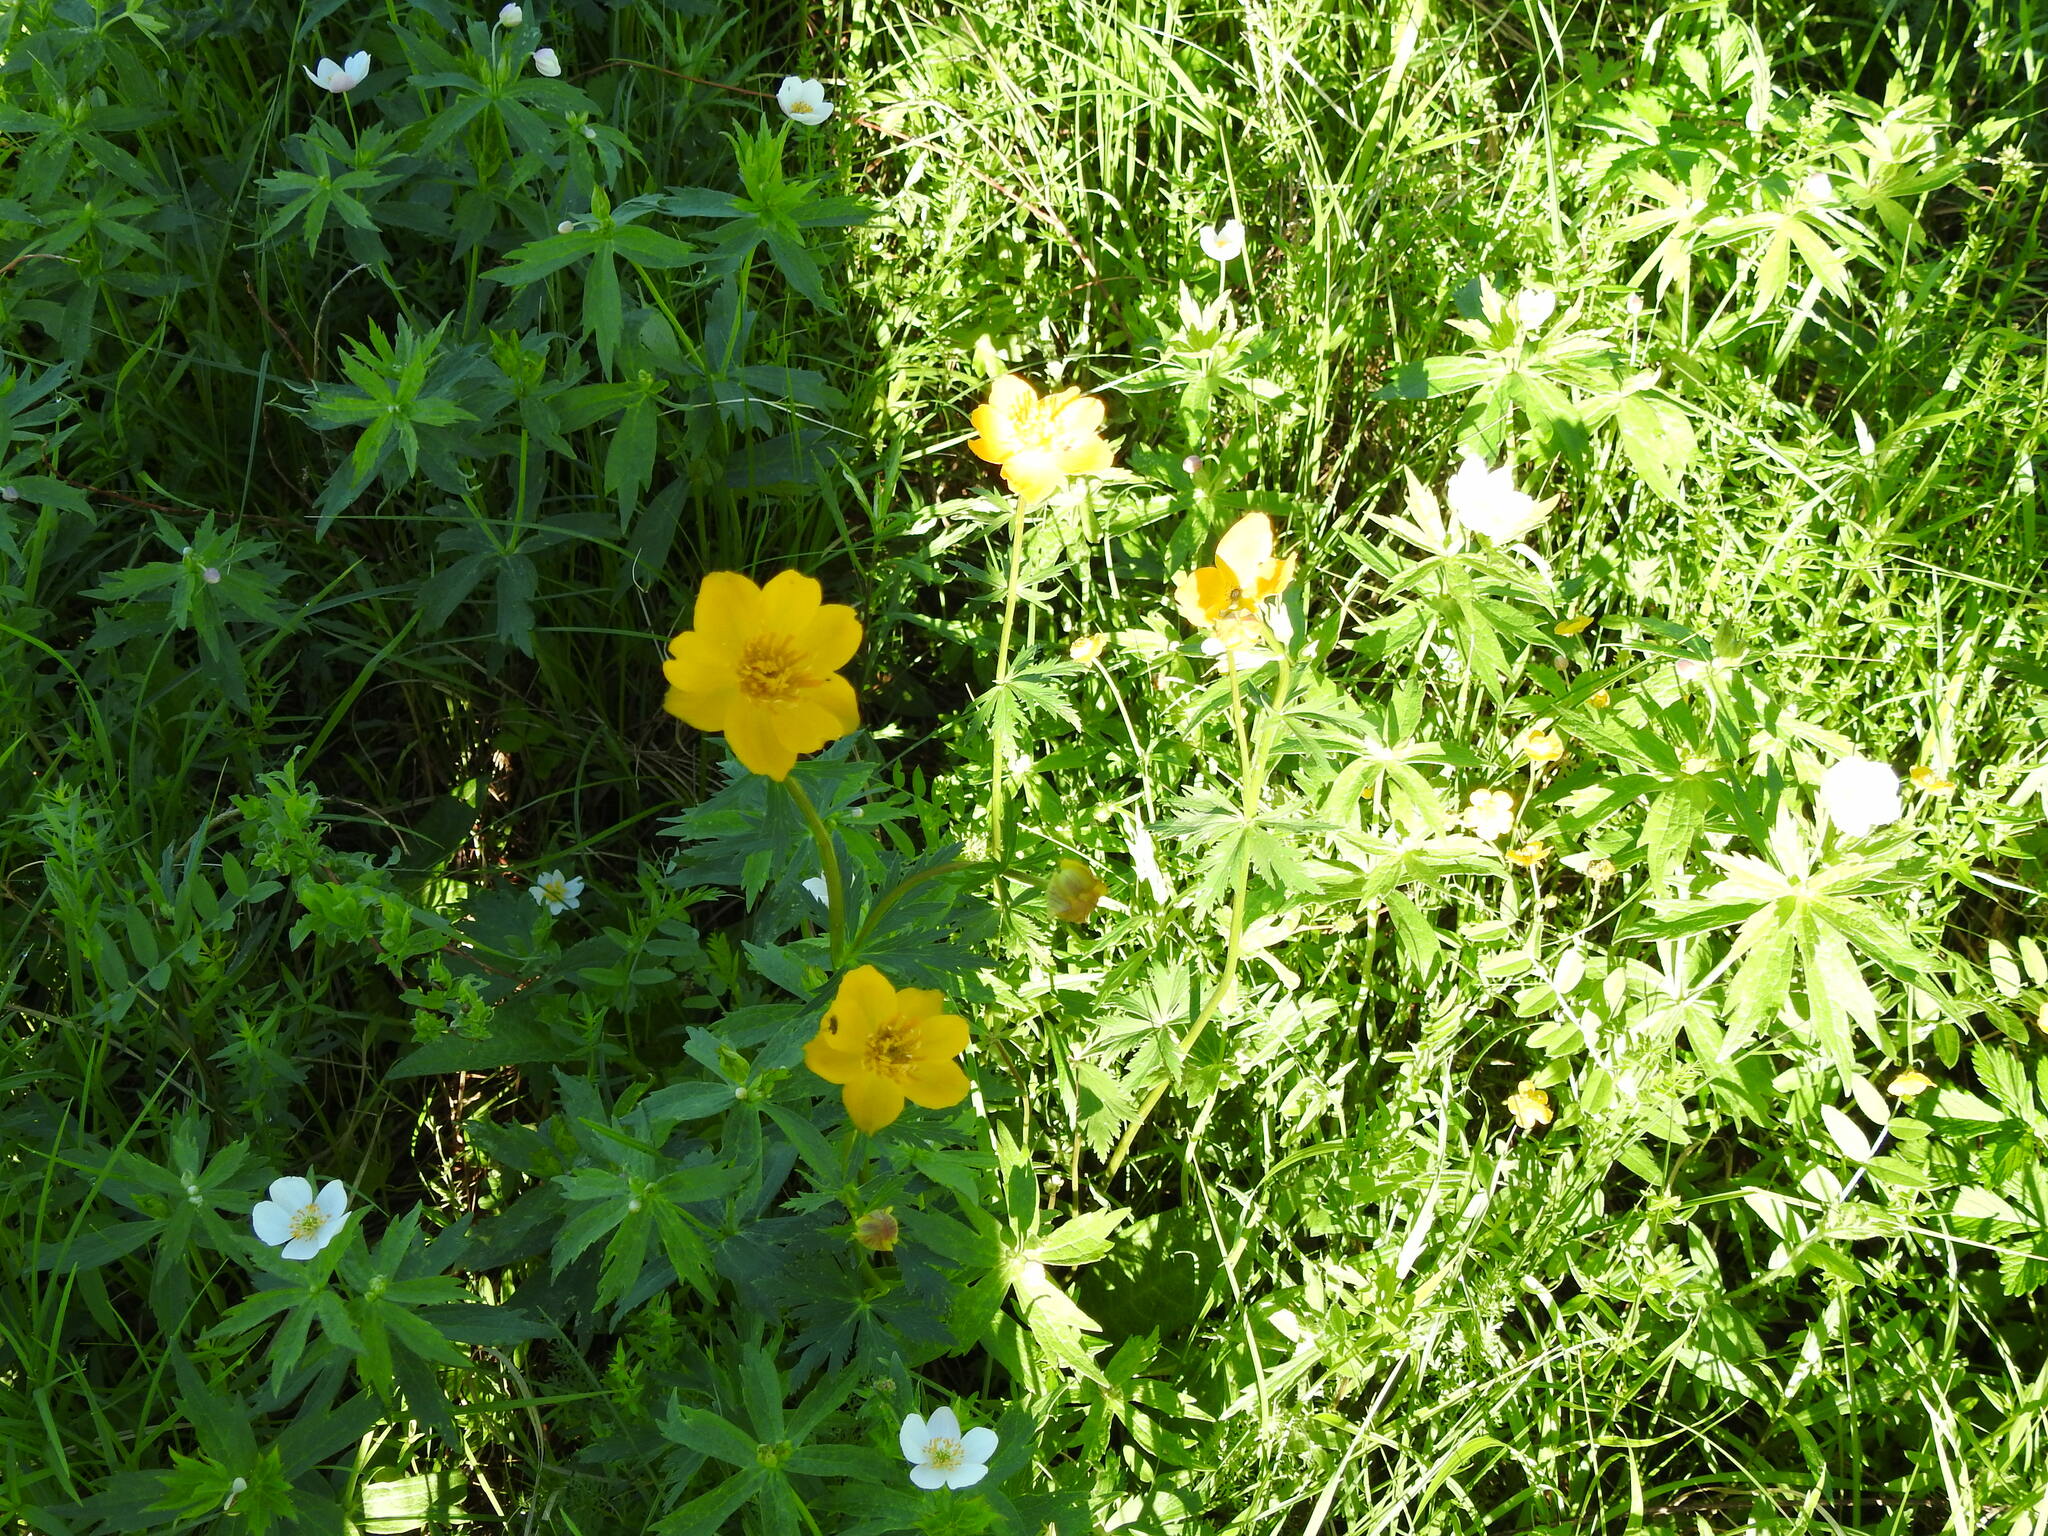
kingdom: Plantae
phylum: Tracheophyta
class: Magnoliopsida
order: Ranunculales
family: Ranunculaceae
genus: Trollius
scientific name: Trollius vicarius
